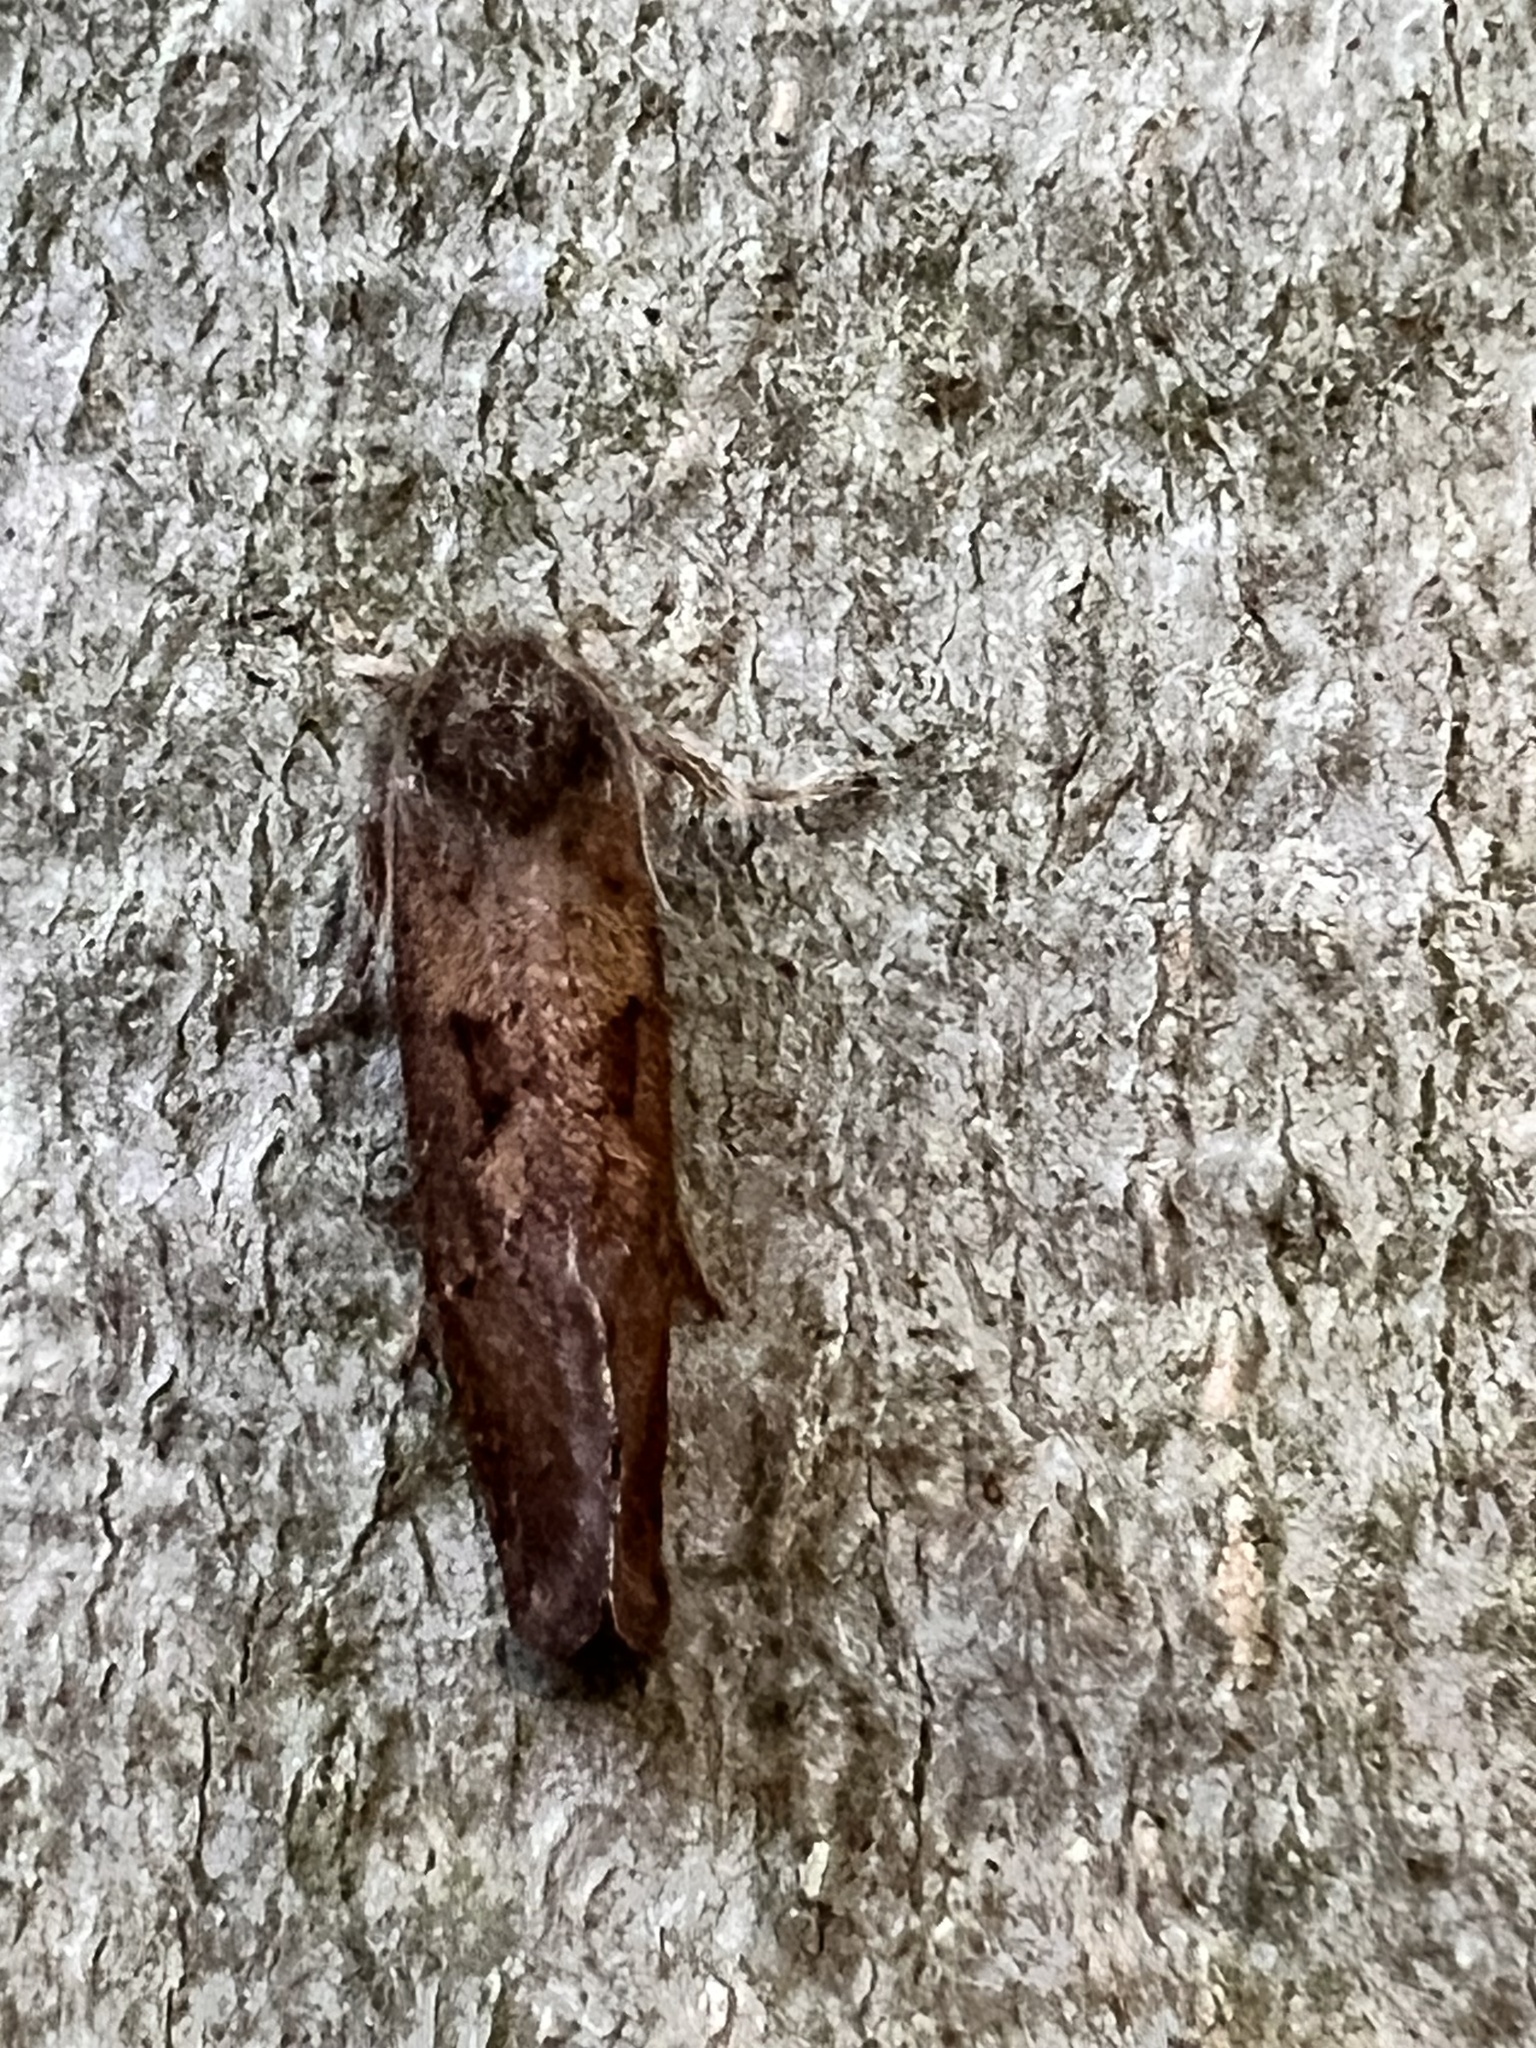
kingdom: Animalia
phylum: Arthropoda
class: Insecta
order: Lepidoptera
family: Tineidae
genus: Acrolophus
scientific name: Acrolophus mora
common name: Dark acrolophus
